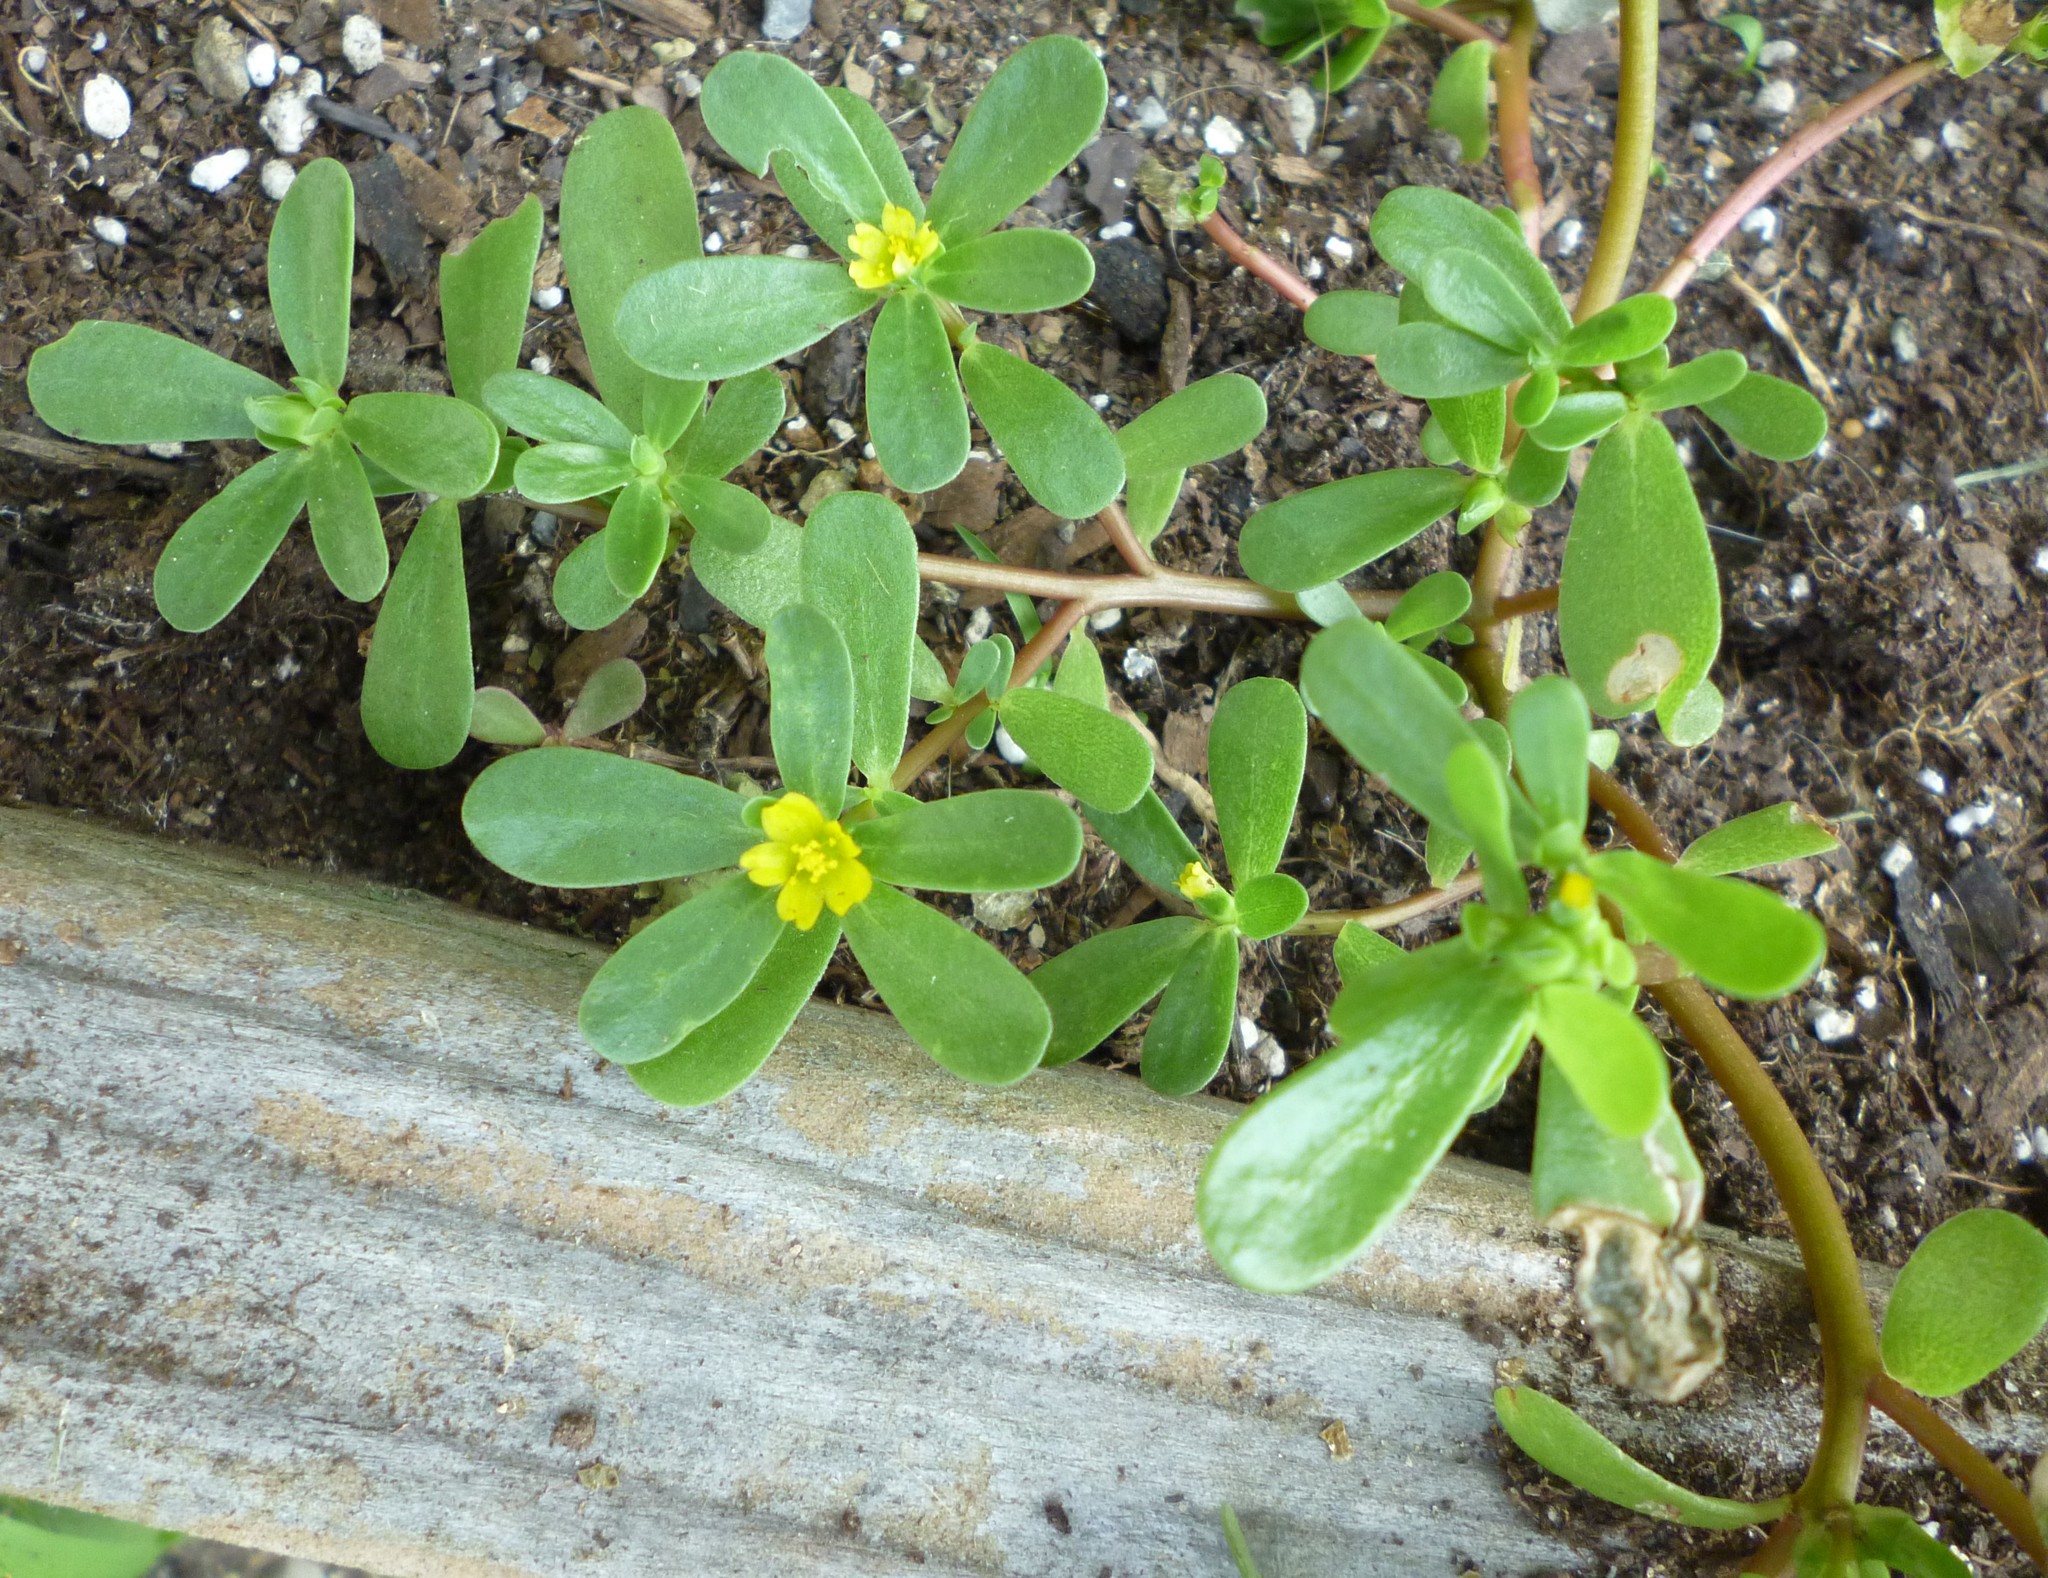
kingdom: Plantae
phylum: Tracheophyta
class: Magnoliopsida
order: Caryophyllales
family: Portulacaceae
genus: Portulaca
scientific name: Portulaca oleracea
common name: Common purslane
